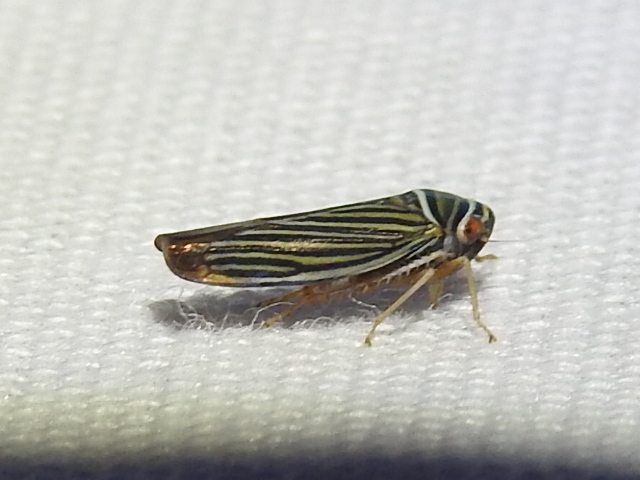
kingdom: Animalia
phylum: Arthropoda
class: Insecta
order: Hemiptera
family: Cicadellidae
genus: Tylozygus
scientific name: Tylozygus bifidus
